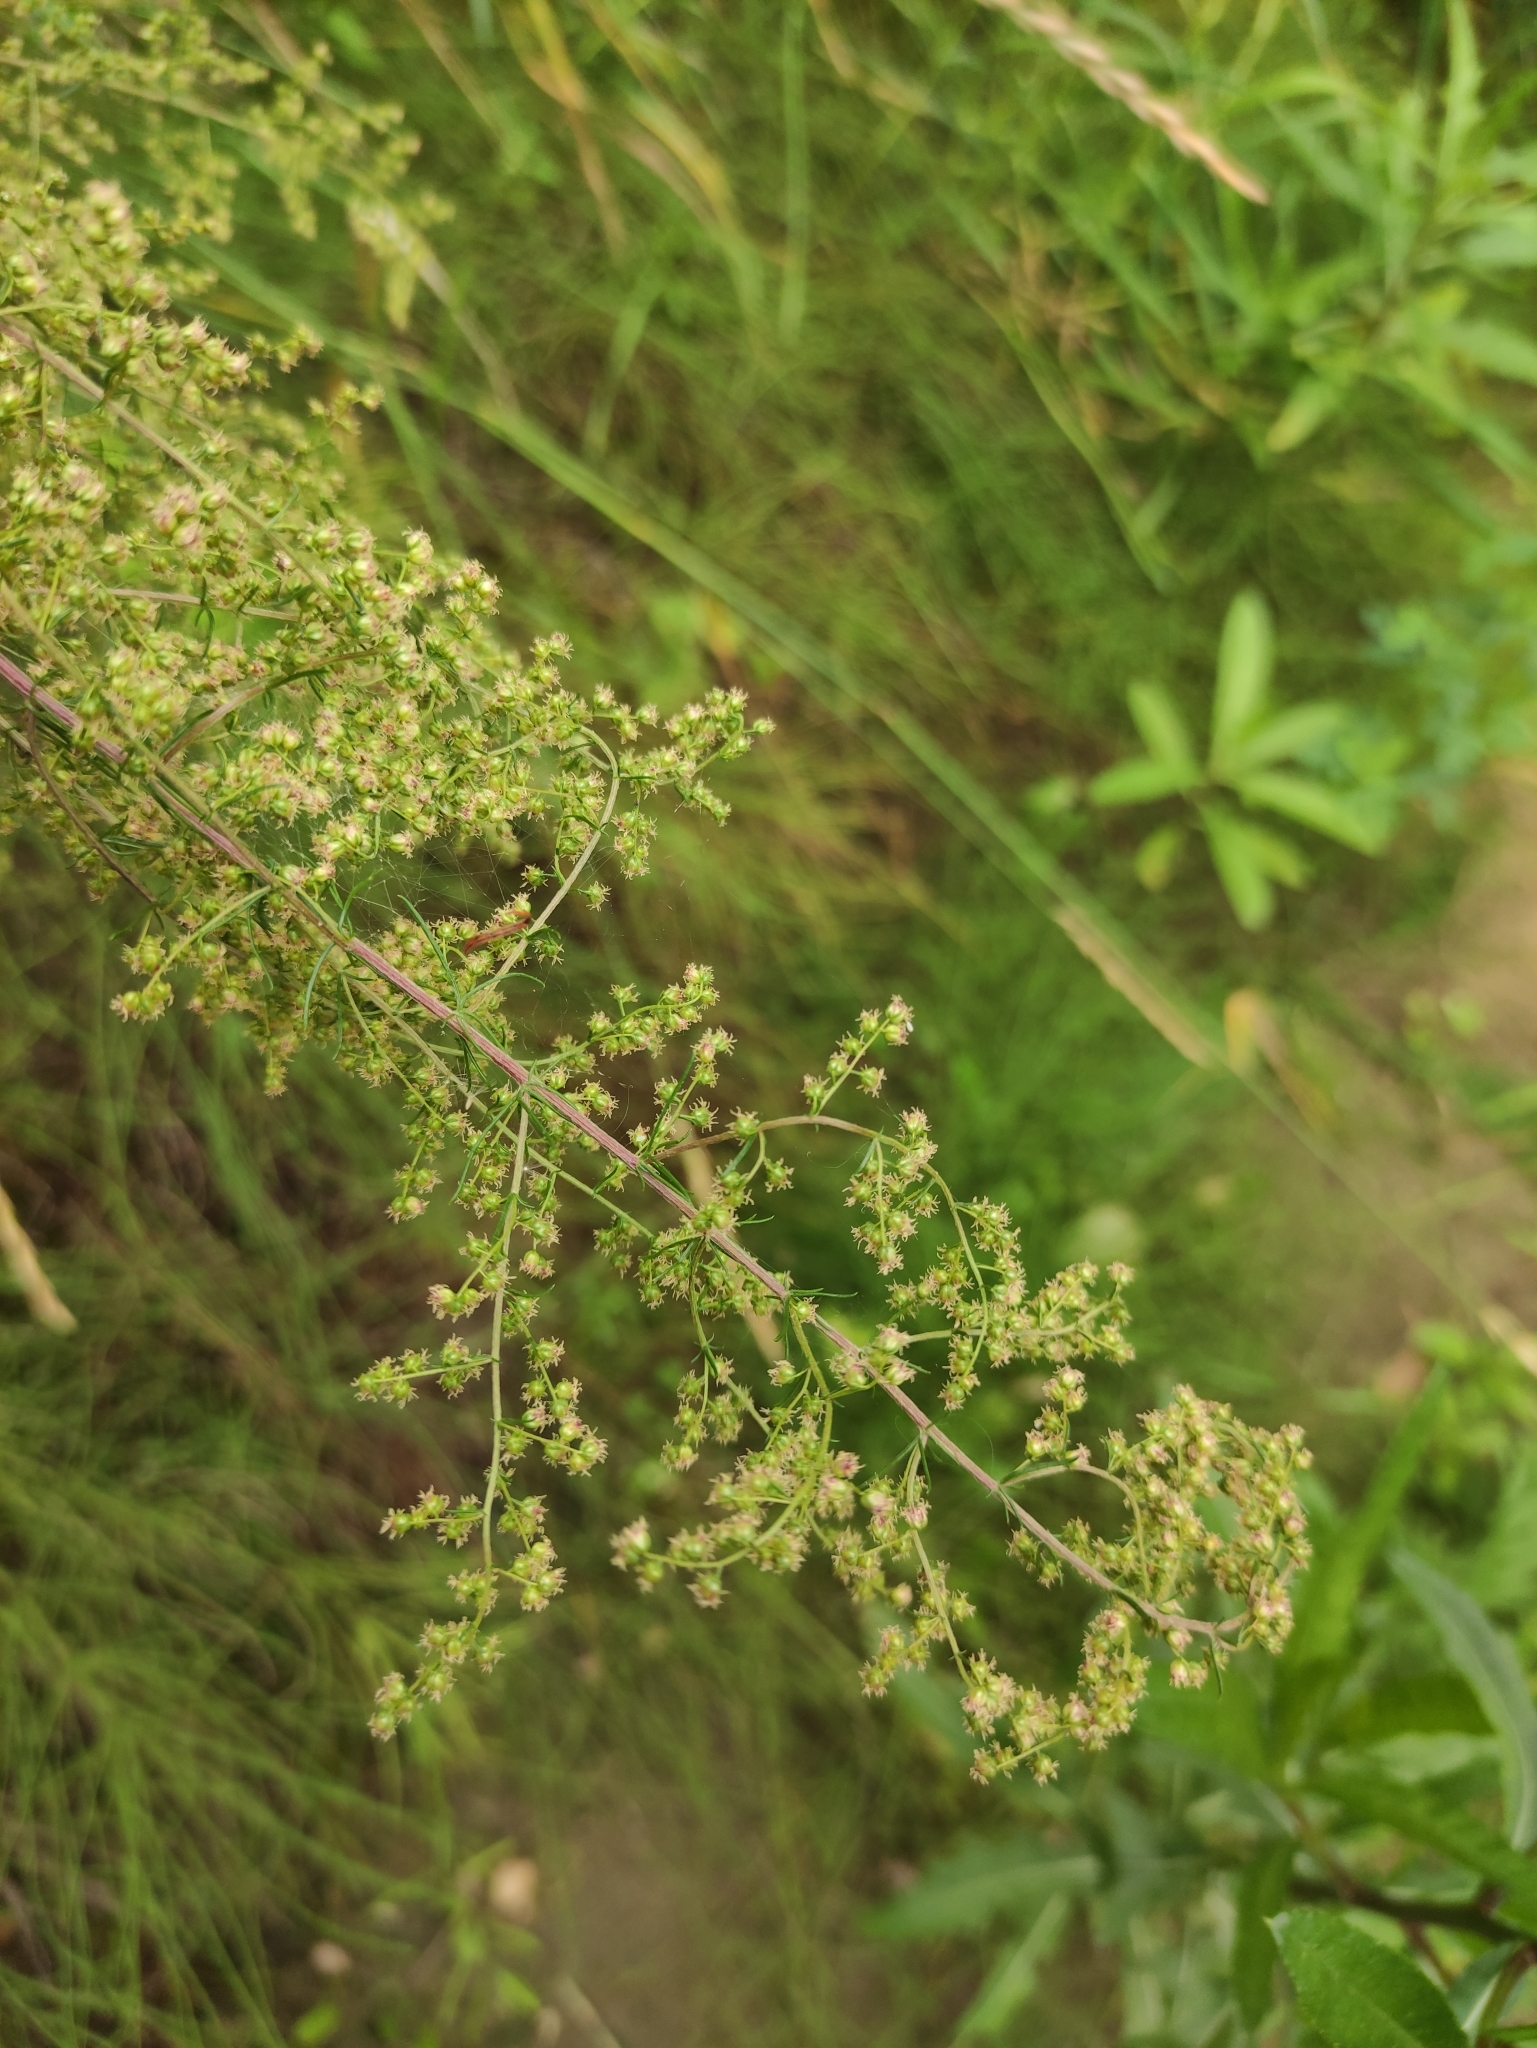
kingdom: Plantae
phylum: Tracheophyta
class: Magnoliopsida
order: Asterales
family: Asteraceae
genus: Artemisia
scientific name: Artemisia scoparia
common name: Redstem wormwood
